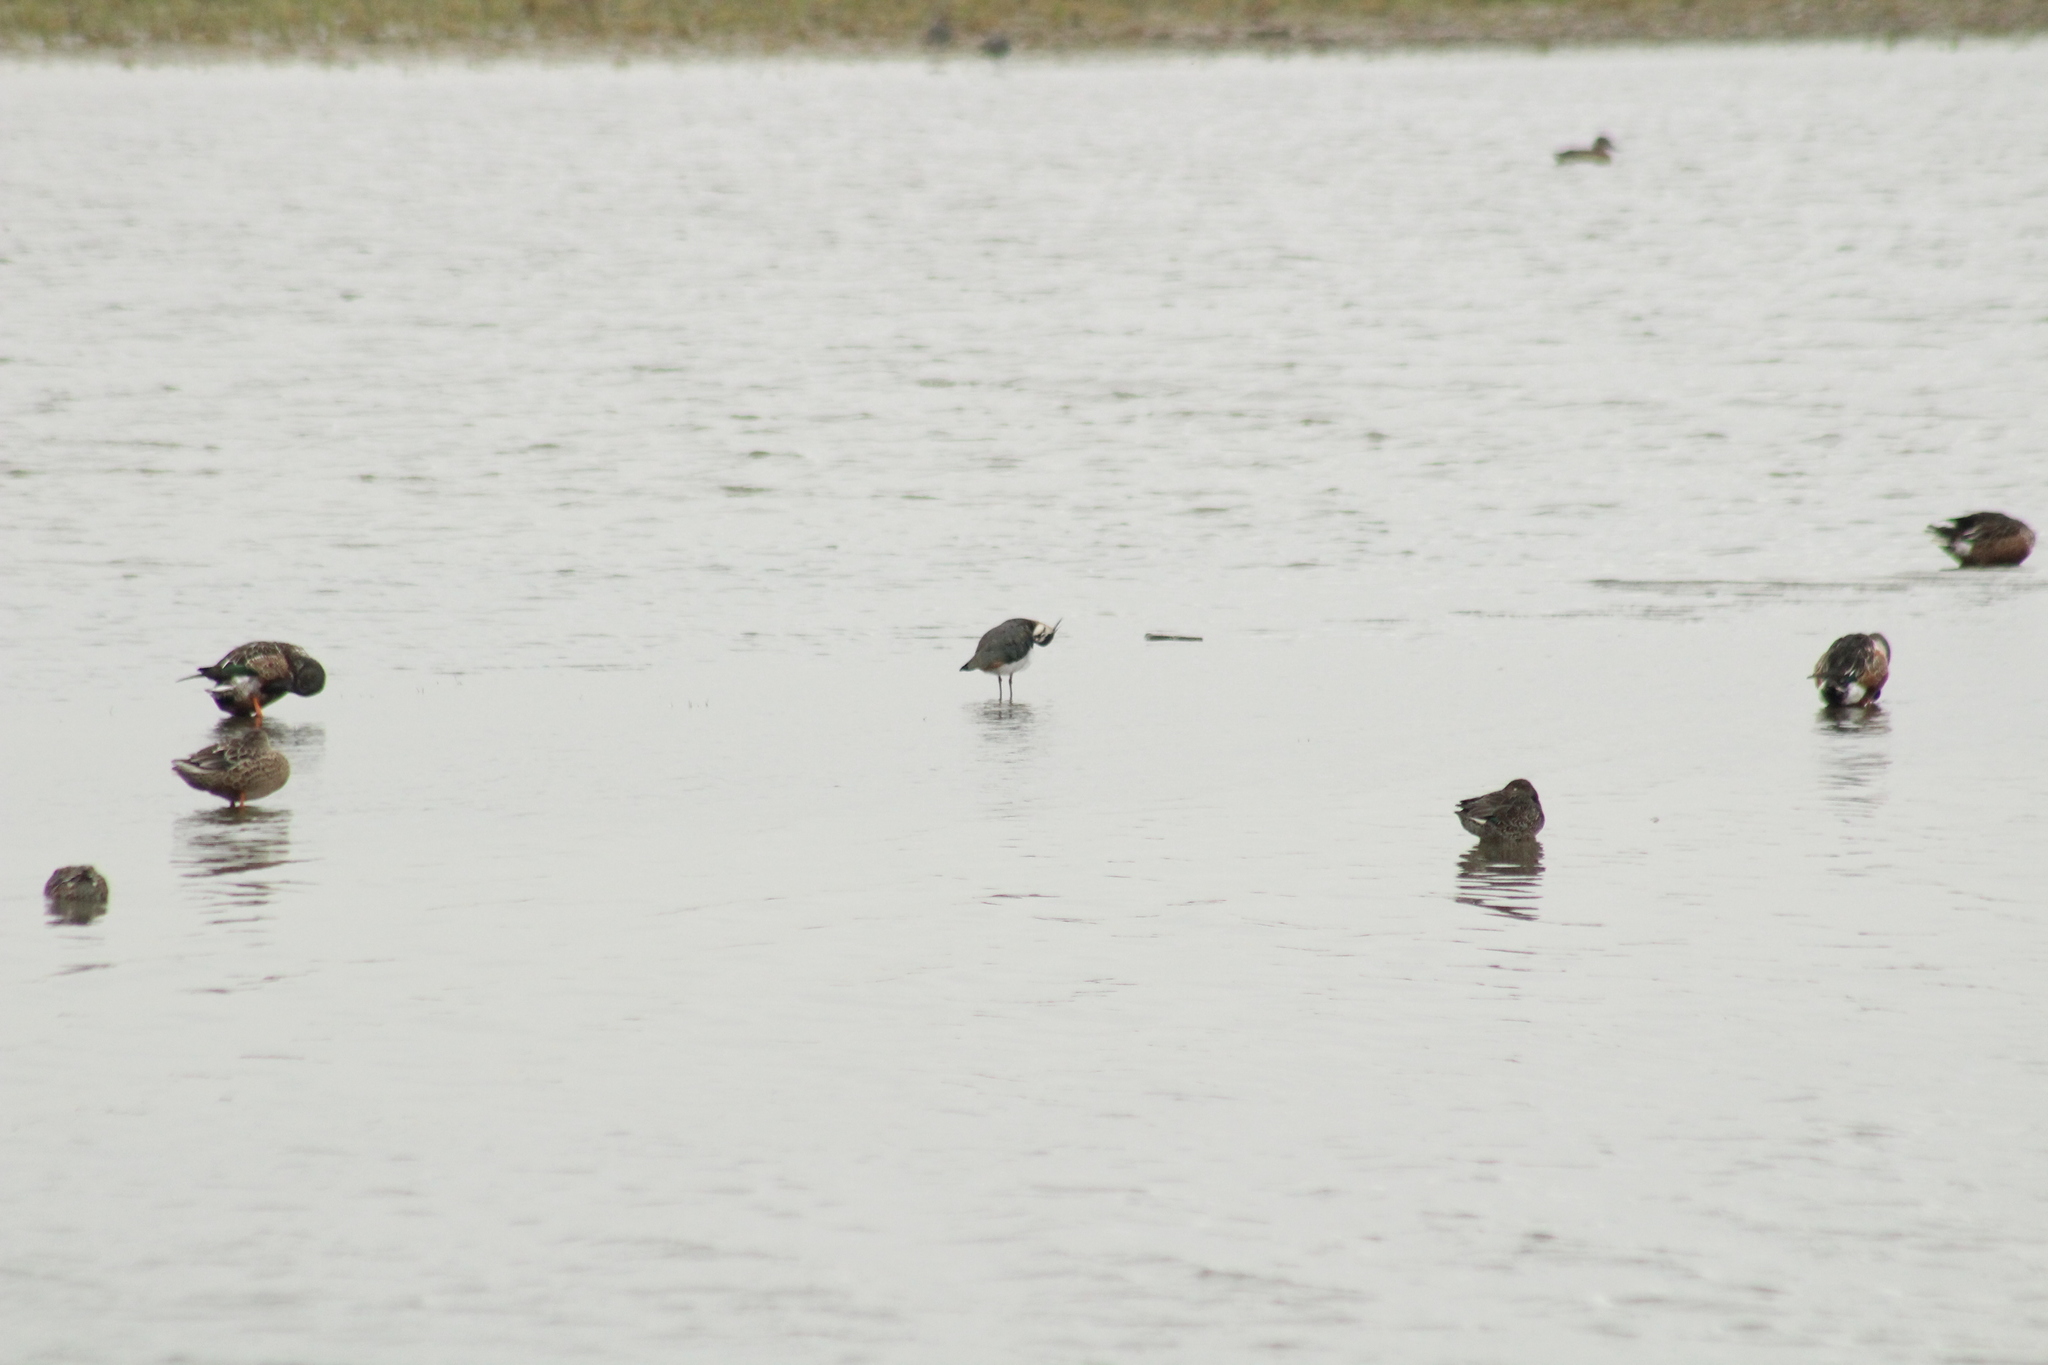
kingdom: Animalia
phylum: Chordata
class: Aves
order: Charadriiformes
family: Charadriidae
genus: Vanellus
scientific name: Vanellus vanellus
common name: Northern lapwing
